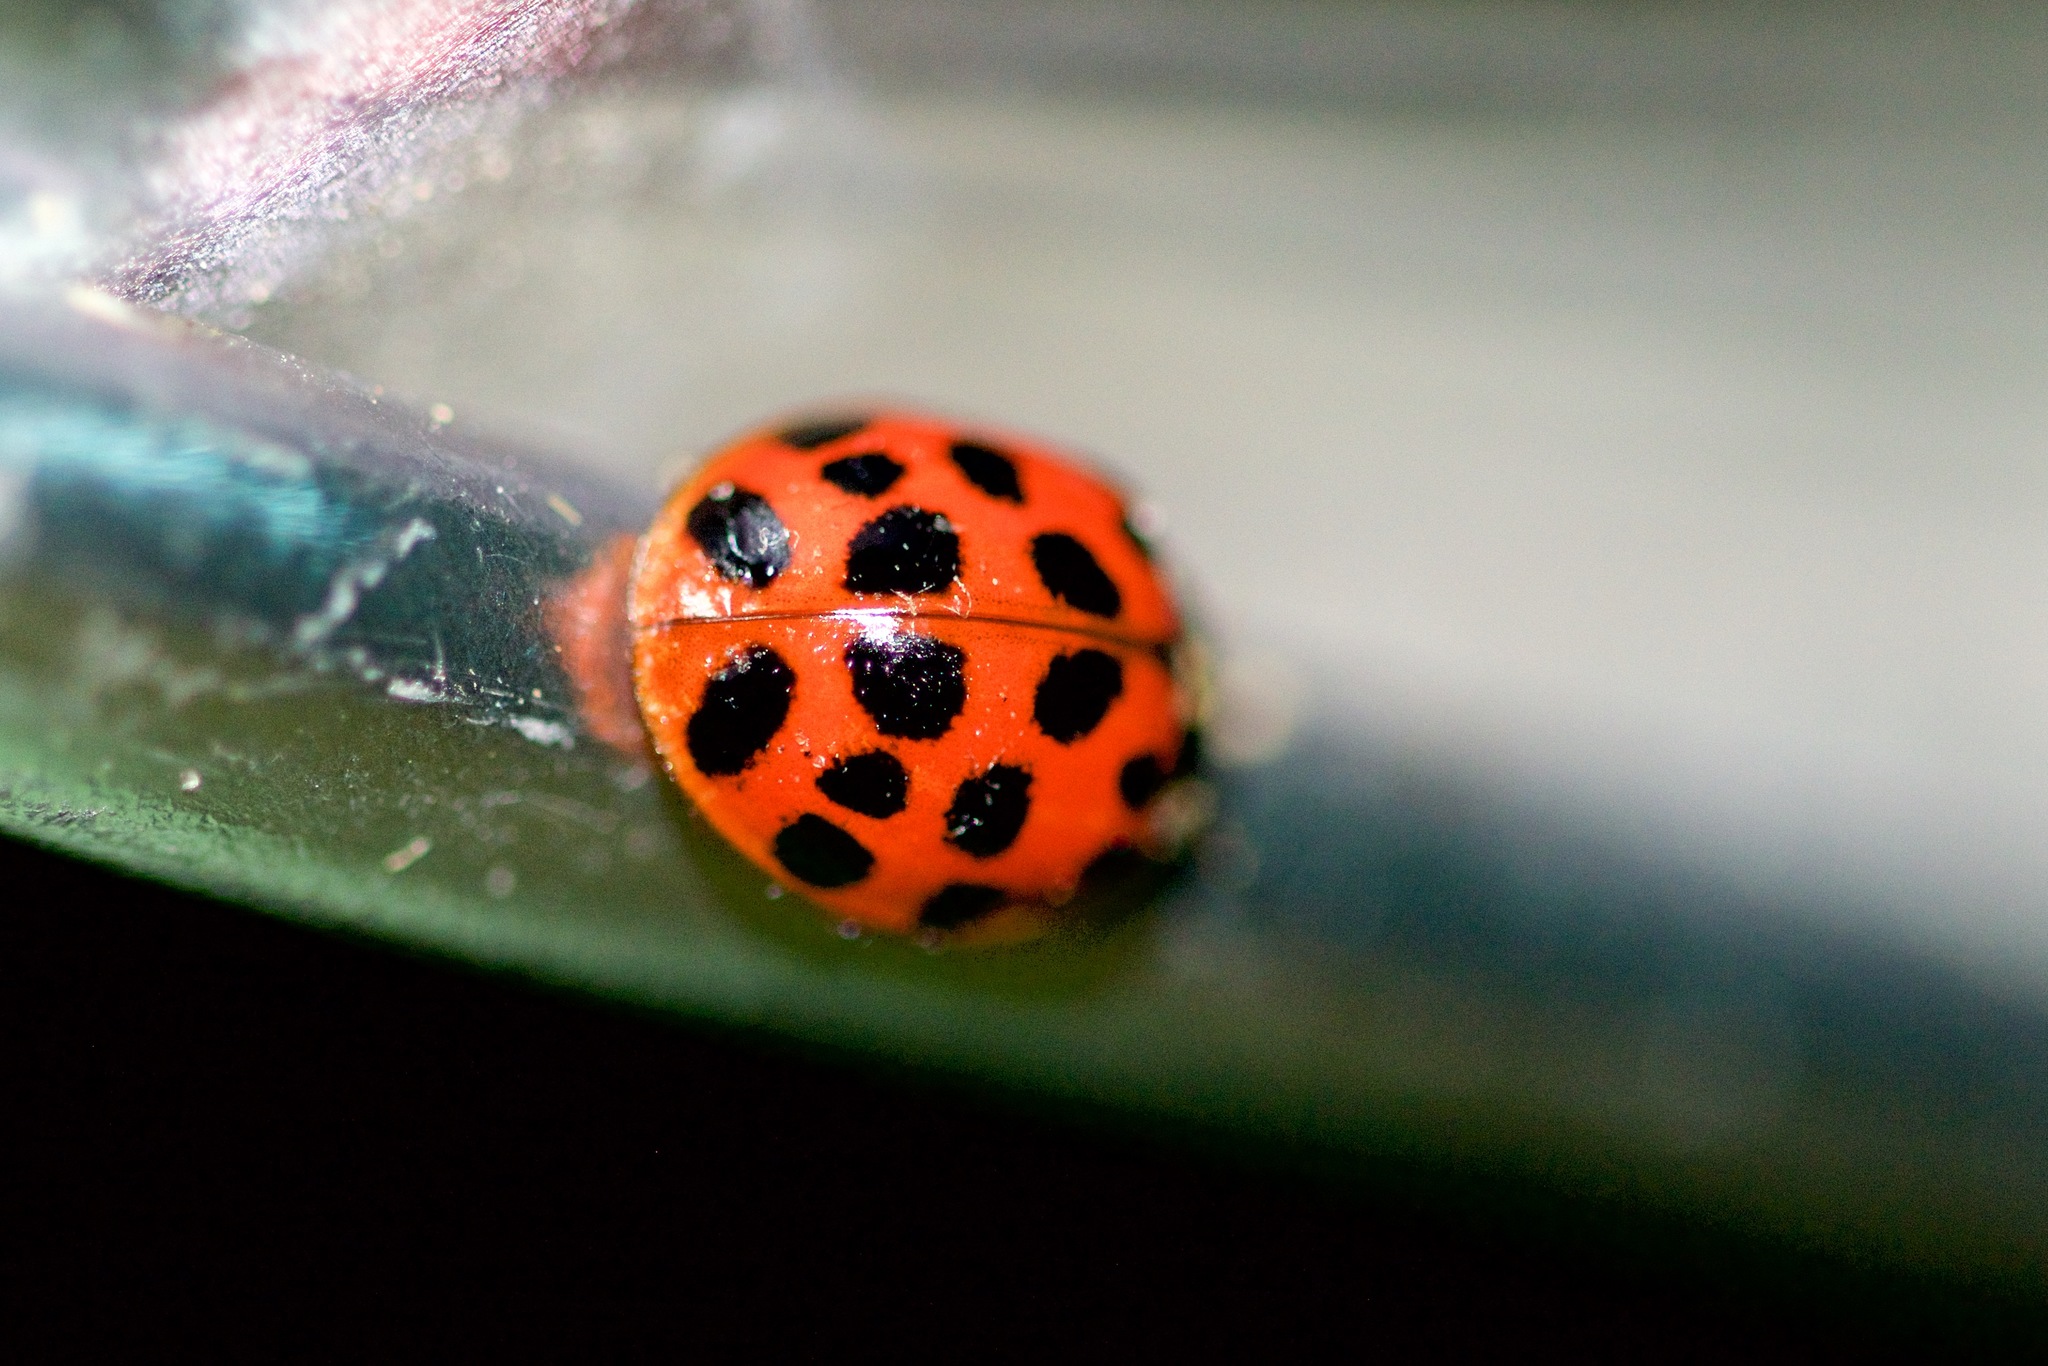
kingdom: Animalia
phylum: Arthropoda
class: Insecta
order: Coleoptera
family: Coccinellidae
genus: Harmonia
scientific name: Harmonia axyridis
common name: Harlequin ladybird
